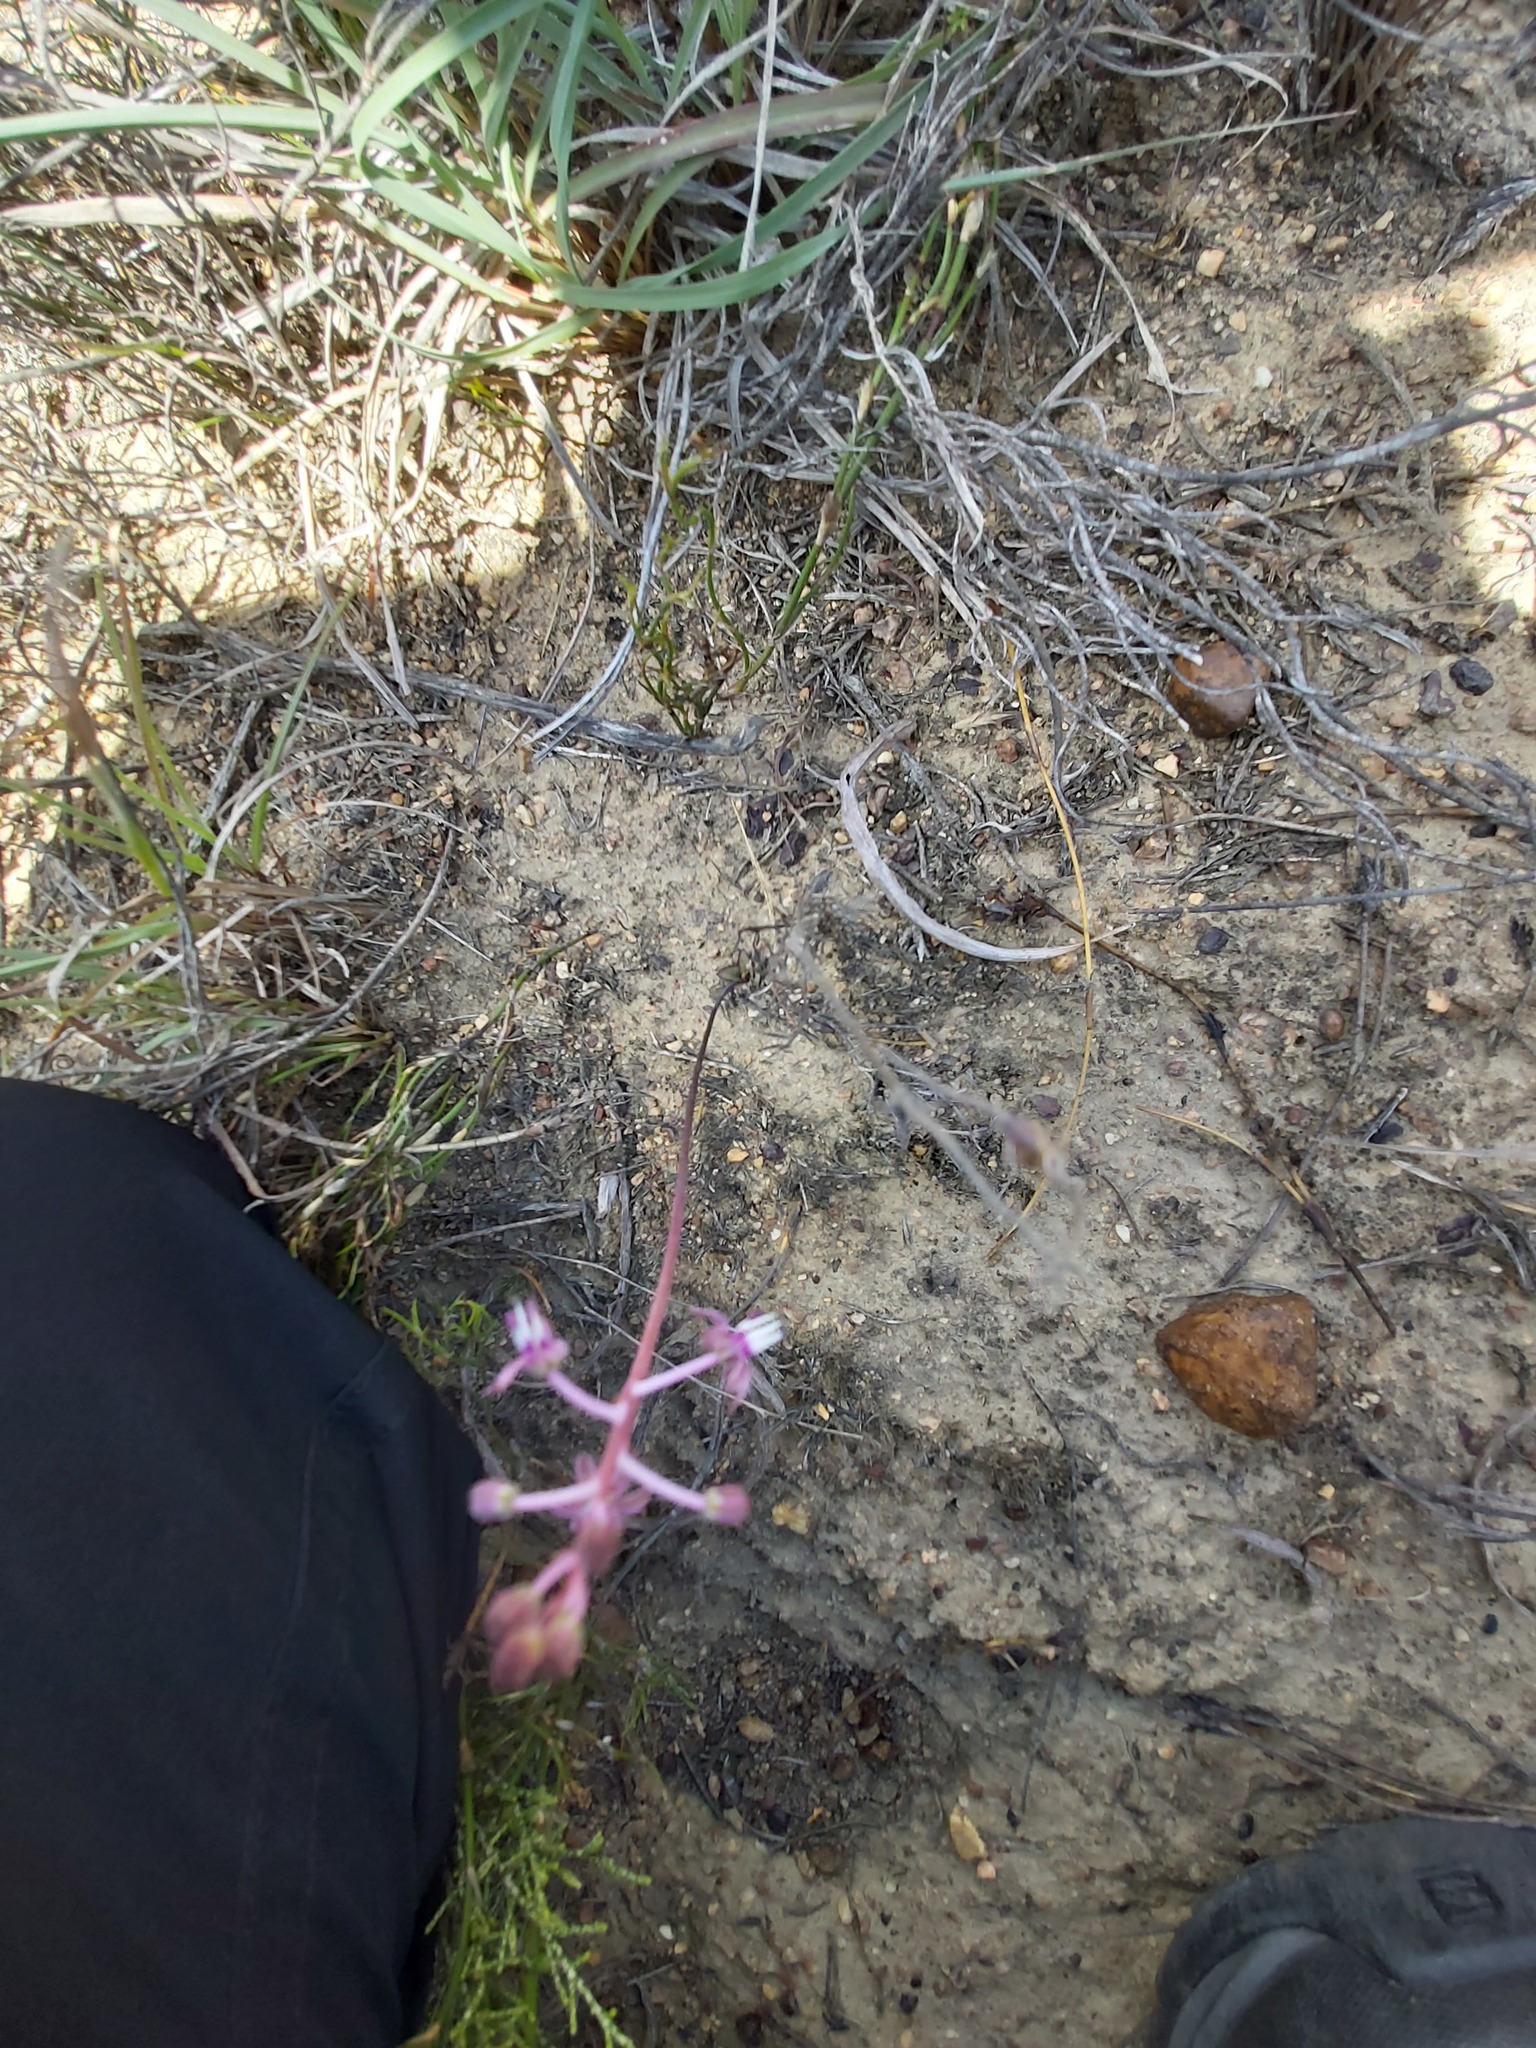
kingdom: Plantae
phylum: Tracheophyta
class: Liliopsida
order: Asparagales
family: Asparagaceae
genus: Ledebouria
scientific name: Ledebouria ovalifolia
